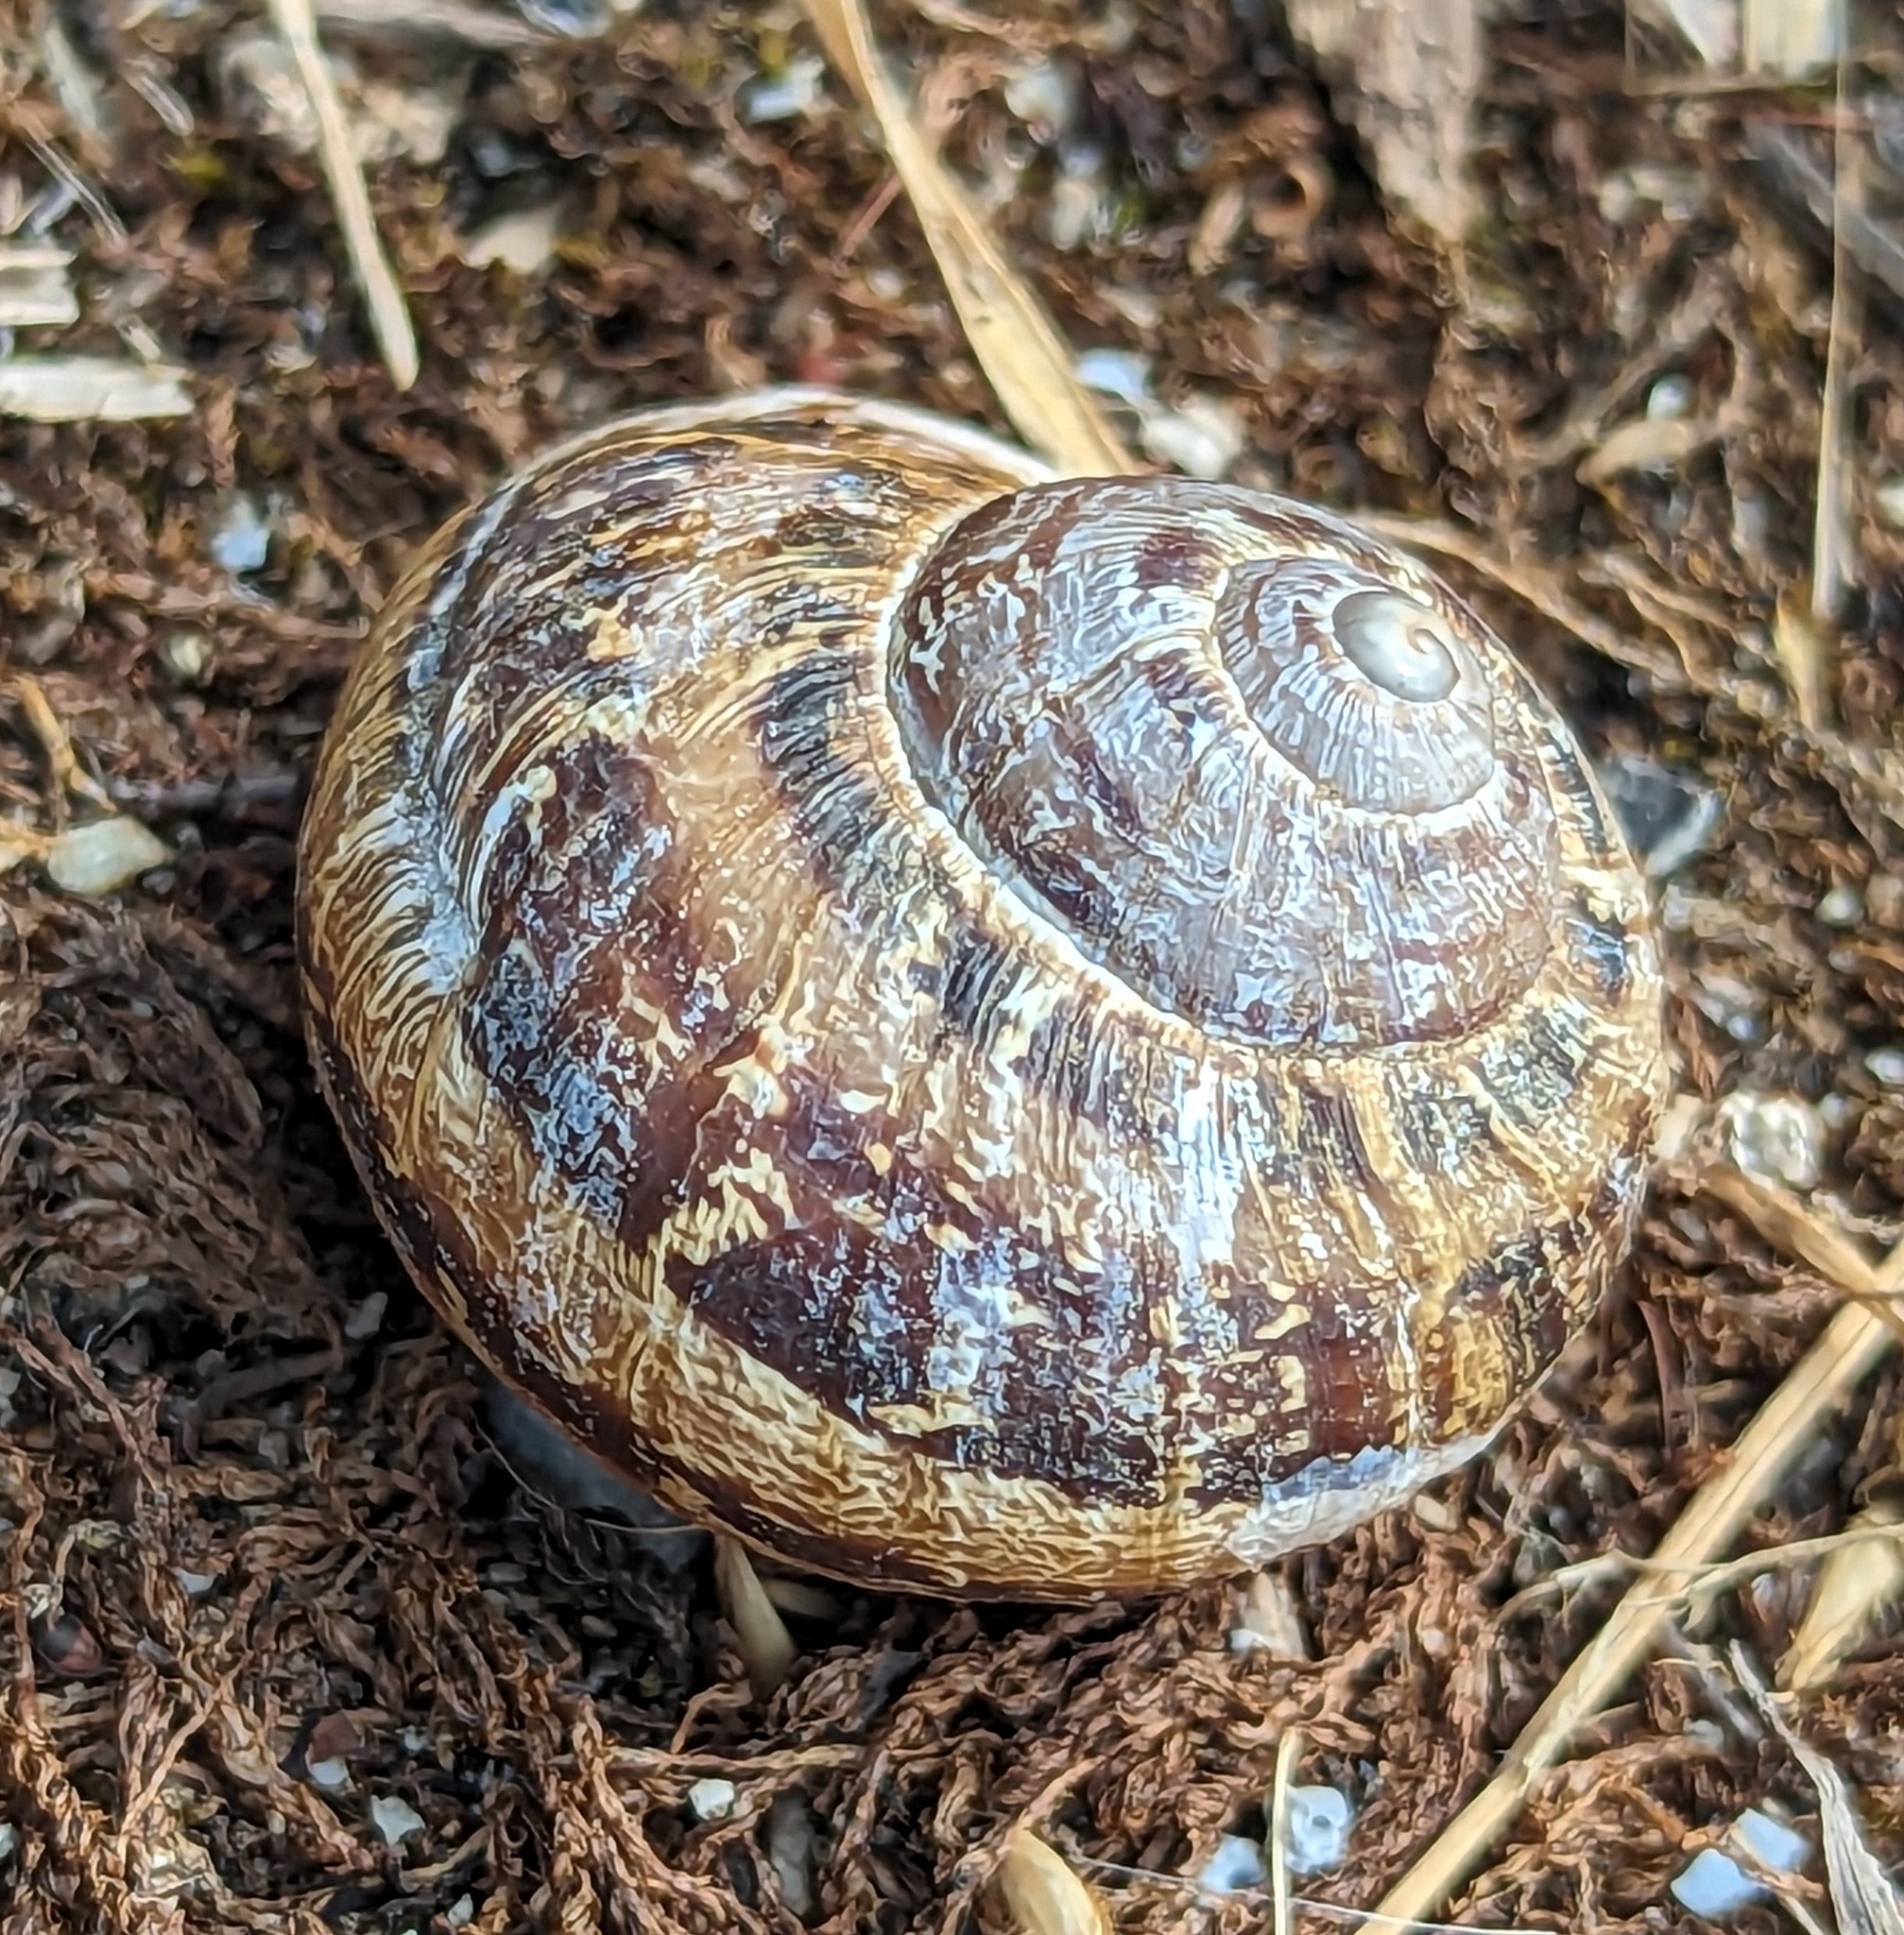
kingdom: Animalia
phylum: Mollusca
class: Gastropoda
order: Stylommatophora
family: Helicidae
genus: Cornu
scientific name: Cornu aspersum
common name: Brown garden snail
